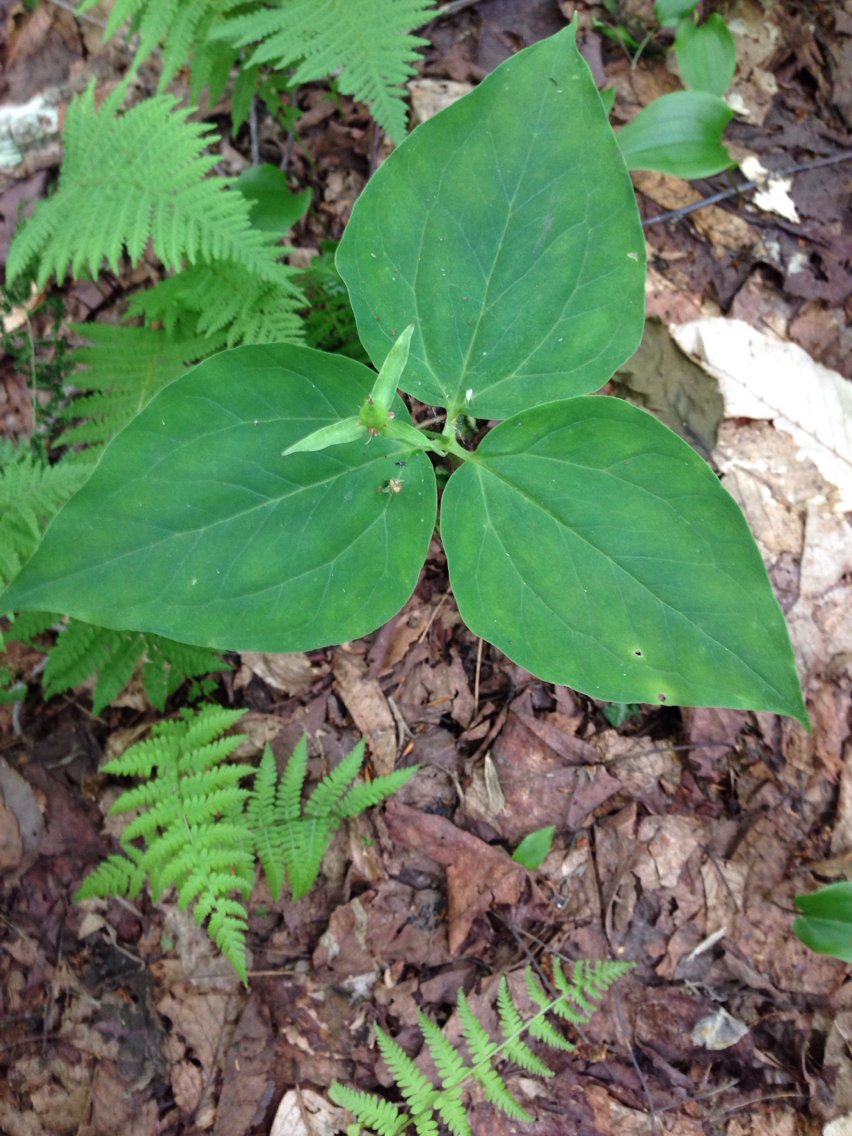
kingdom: Plantae
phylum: Tracheophyta
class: Liliopsida
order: Liliales
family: Melanthiaceae
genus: Trillium
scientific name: Trillium undulatum
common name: Paint trillium
